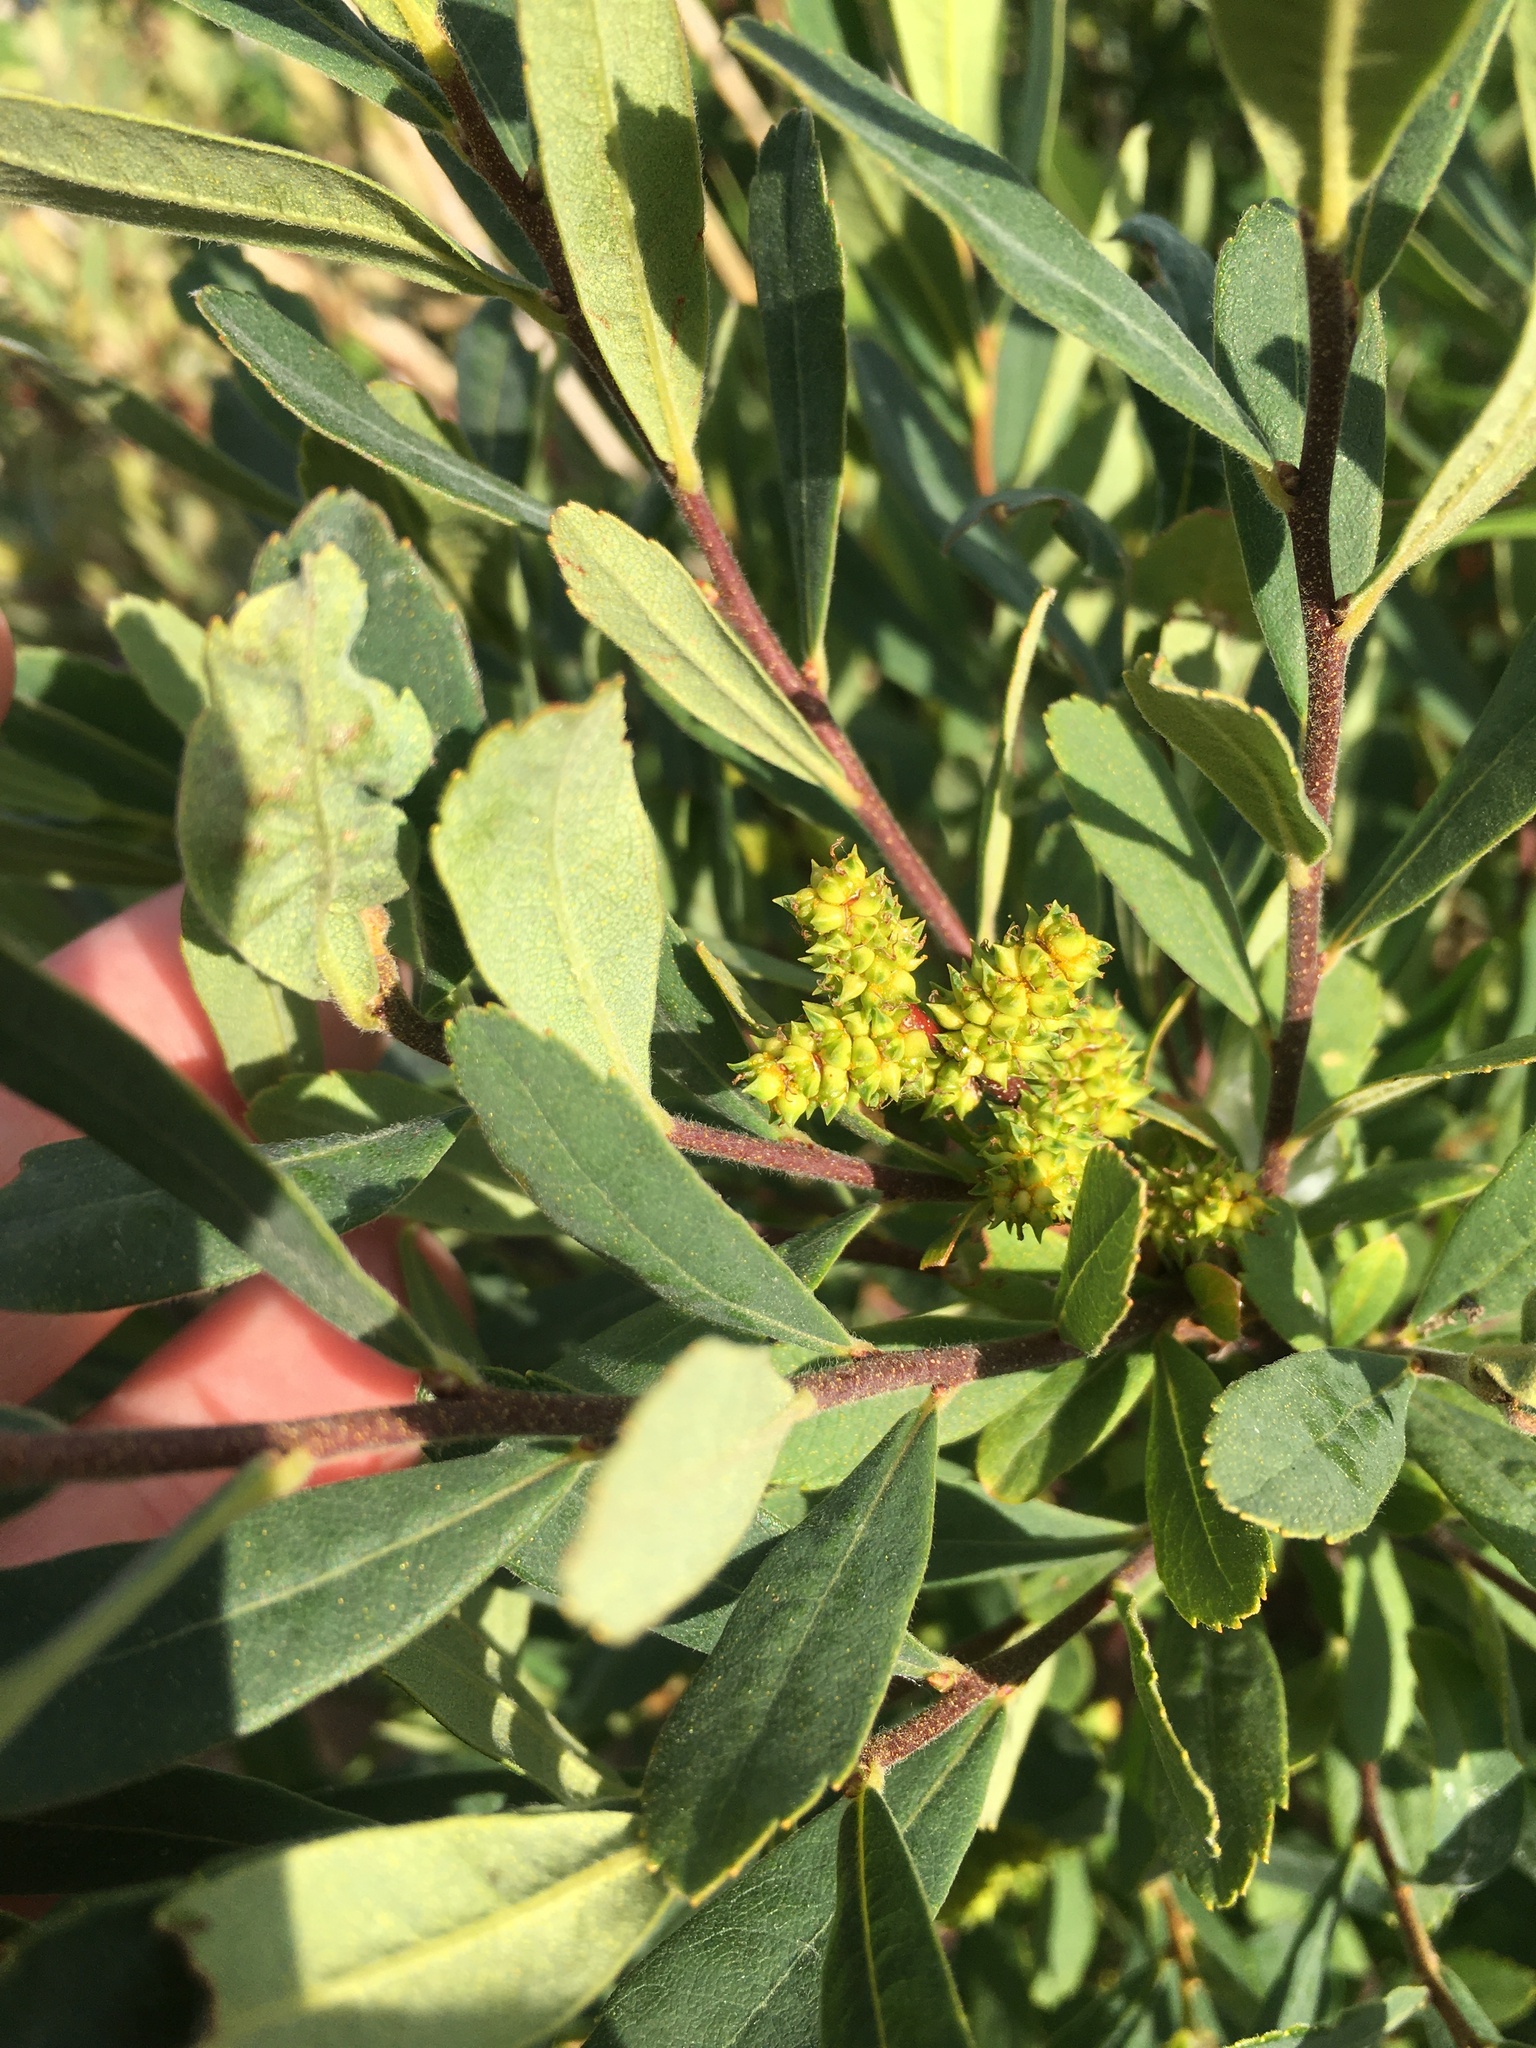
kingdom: Plantae
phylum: Tracheophyta
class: Magnoliopsida
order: Fagales
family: Myricaceae
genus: Myrica
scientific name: Myrica gale
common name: Sweet gale
